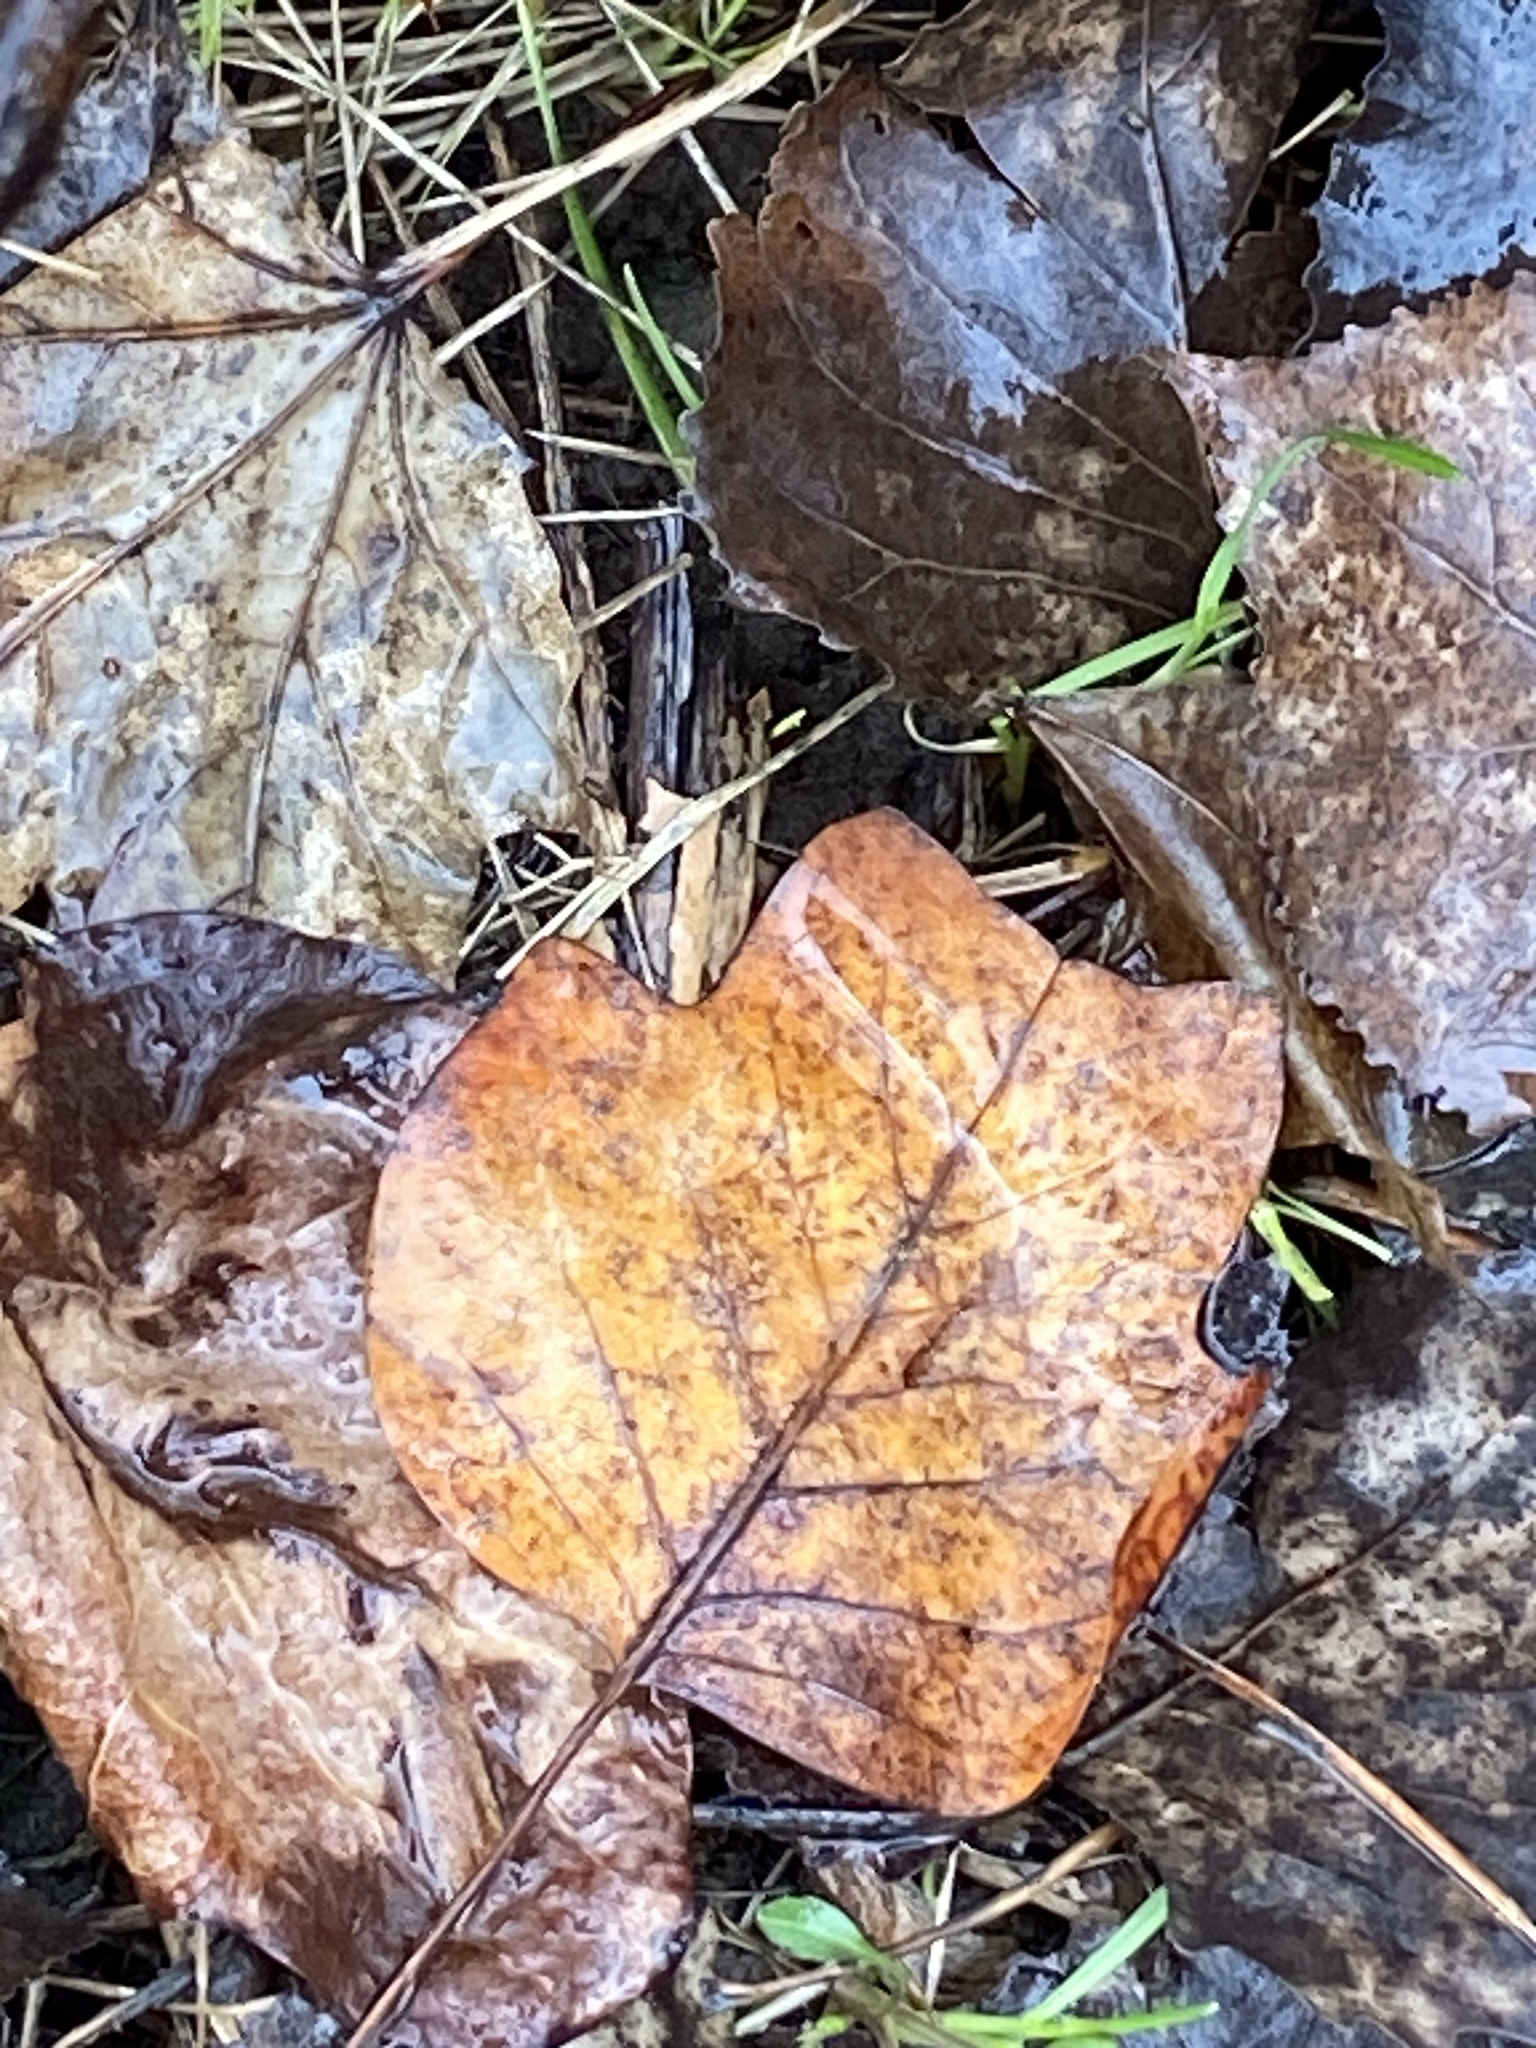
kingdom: Plantae
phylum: Tracheophyta
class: Magnoliopsida
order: Magnoliales
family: Magnoliaceae
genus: Liriodendron
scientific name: Liriodendron tulipifera
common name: Tulip tree
